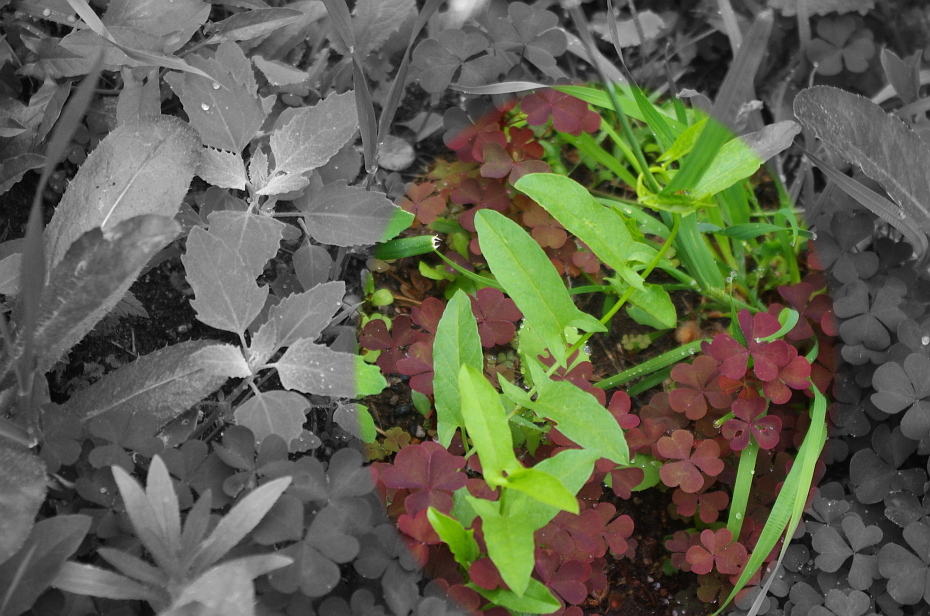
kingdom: Plantae
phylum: Tracheophyta
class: Magnoliopsida
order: Solanales
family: Convolvulaceae
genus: Convolvulus
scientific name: Convolvulus arvensis
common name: Field bindweed
